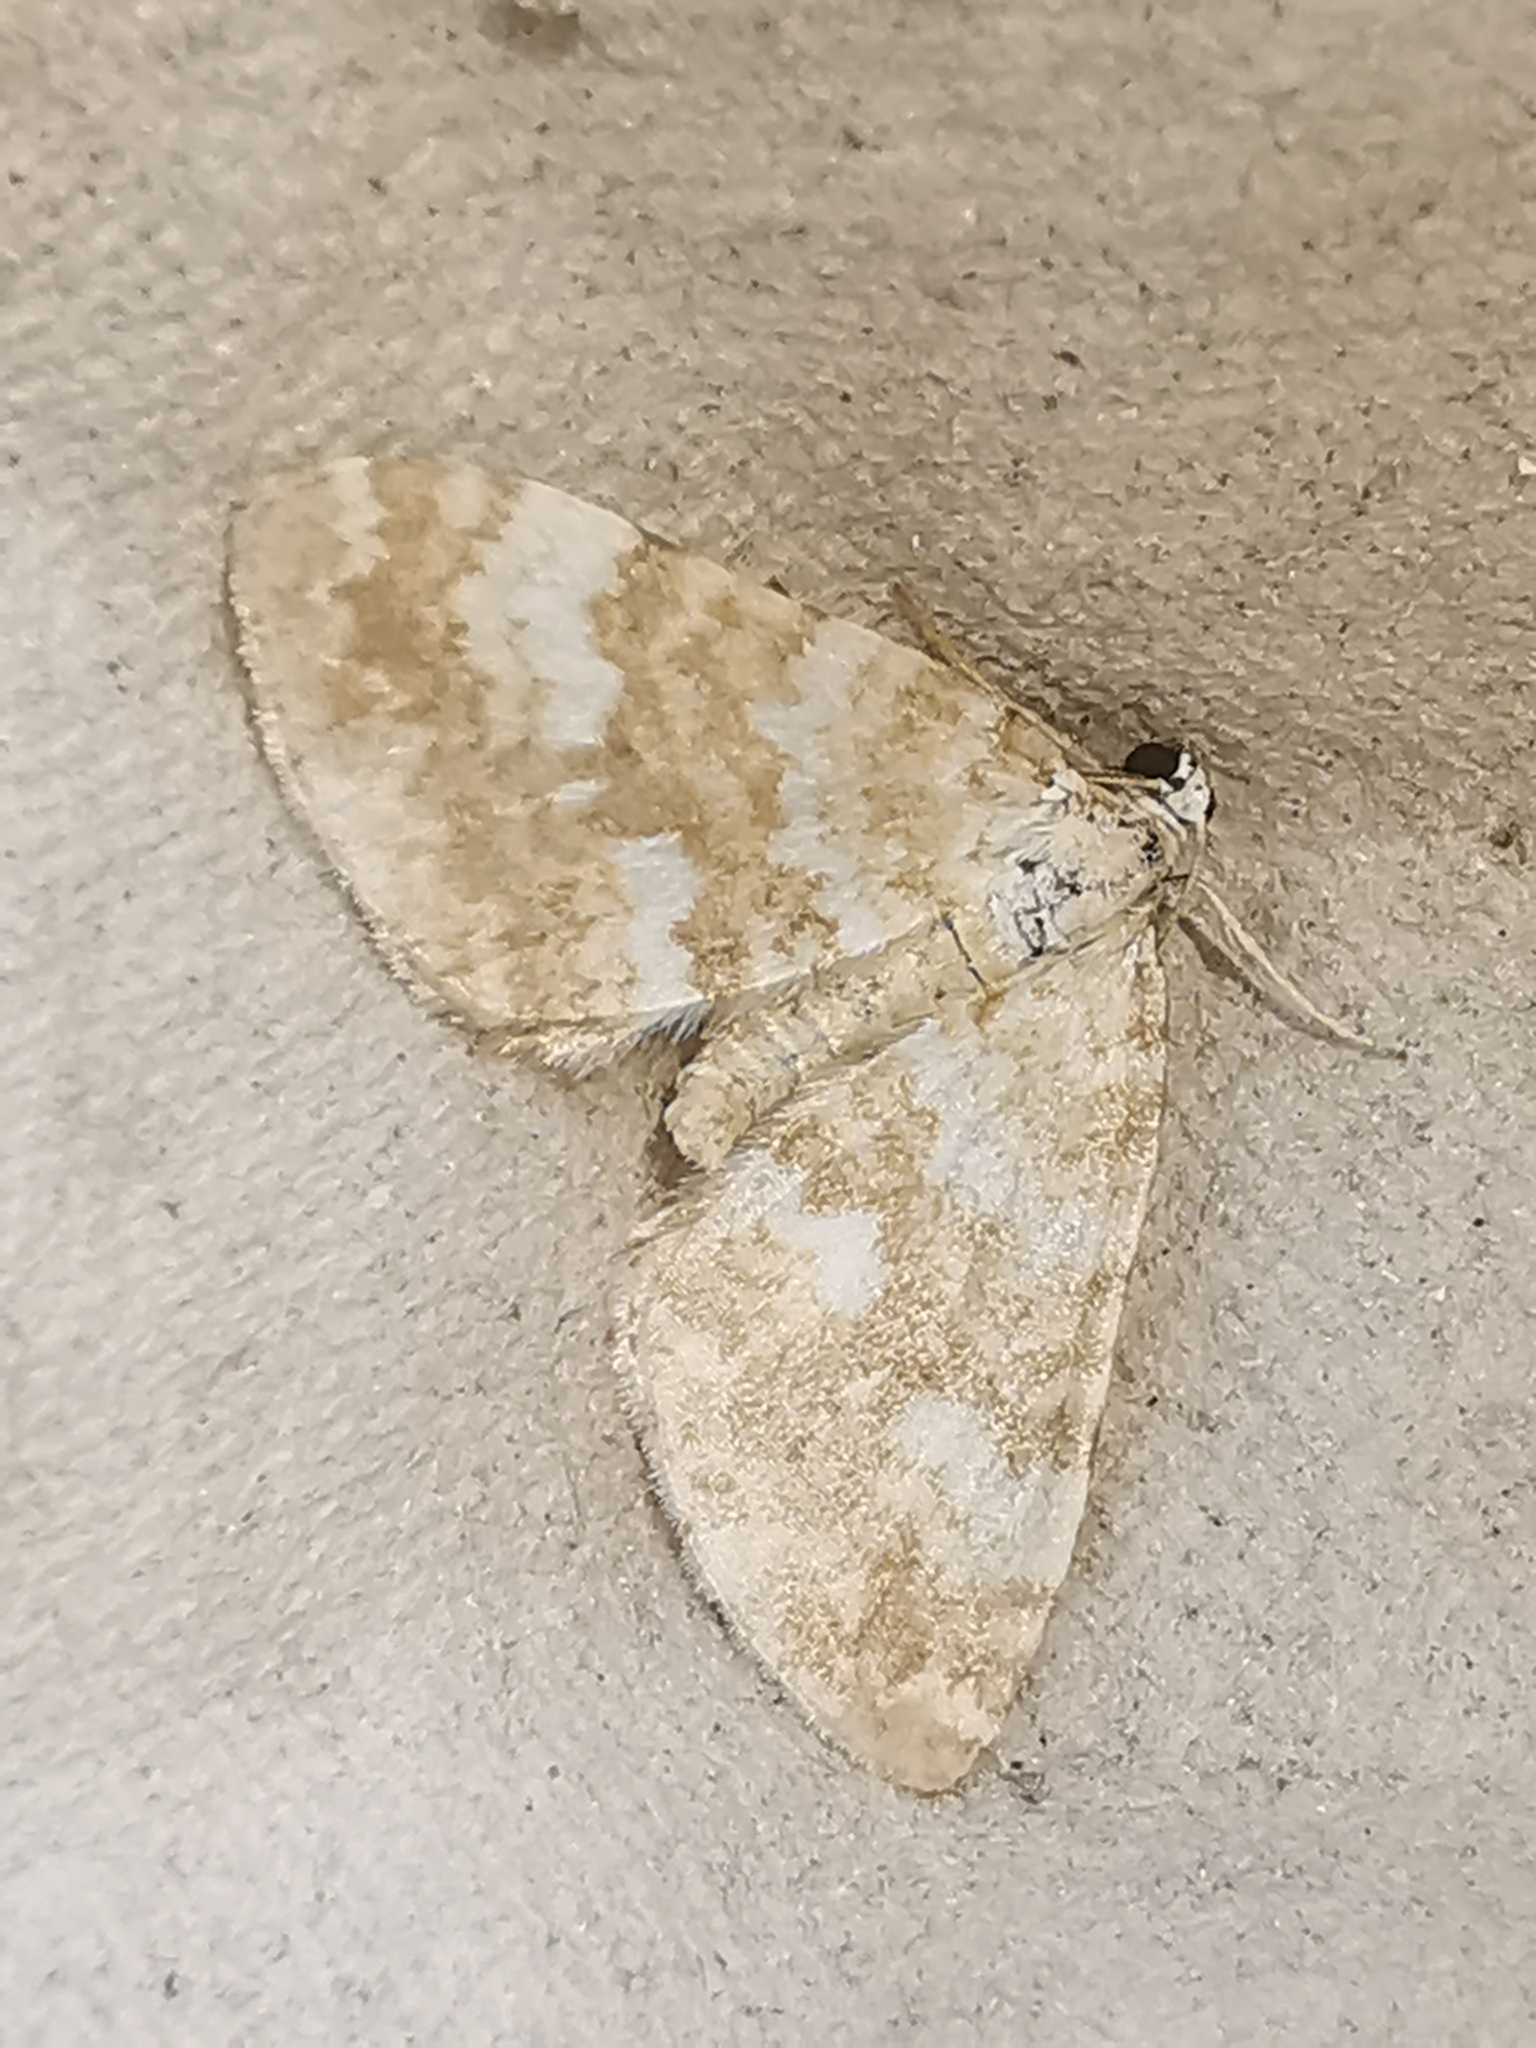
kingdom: Animalia
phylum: Arthropoda
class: Insecta
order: Lepidoptera
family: Geometridae
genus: Perizoma
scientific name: Perizoma flavofasciata
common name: Sandy carpet
